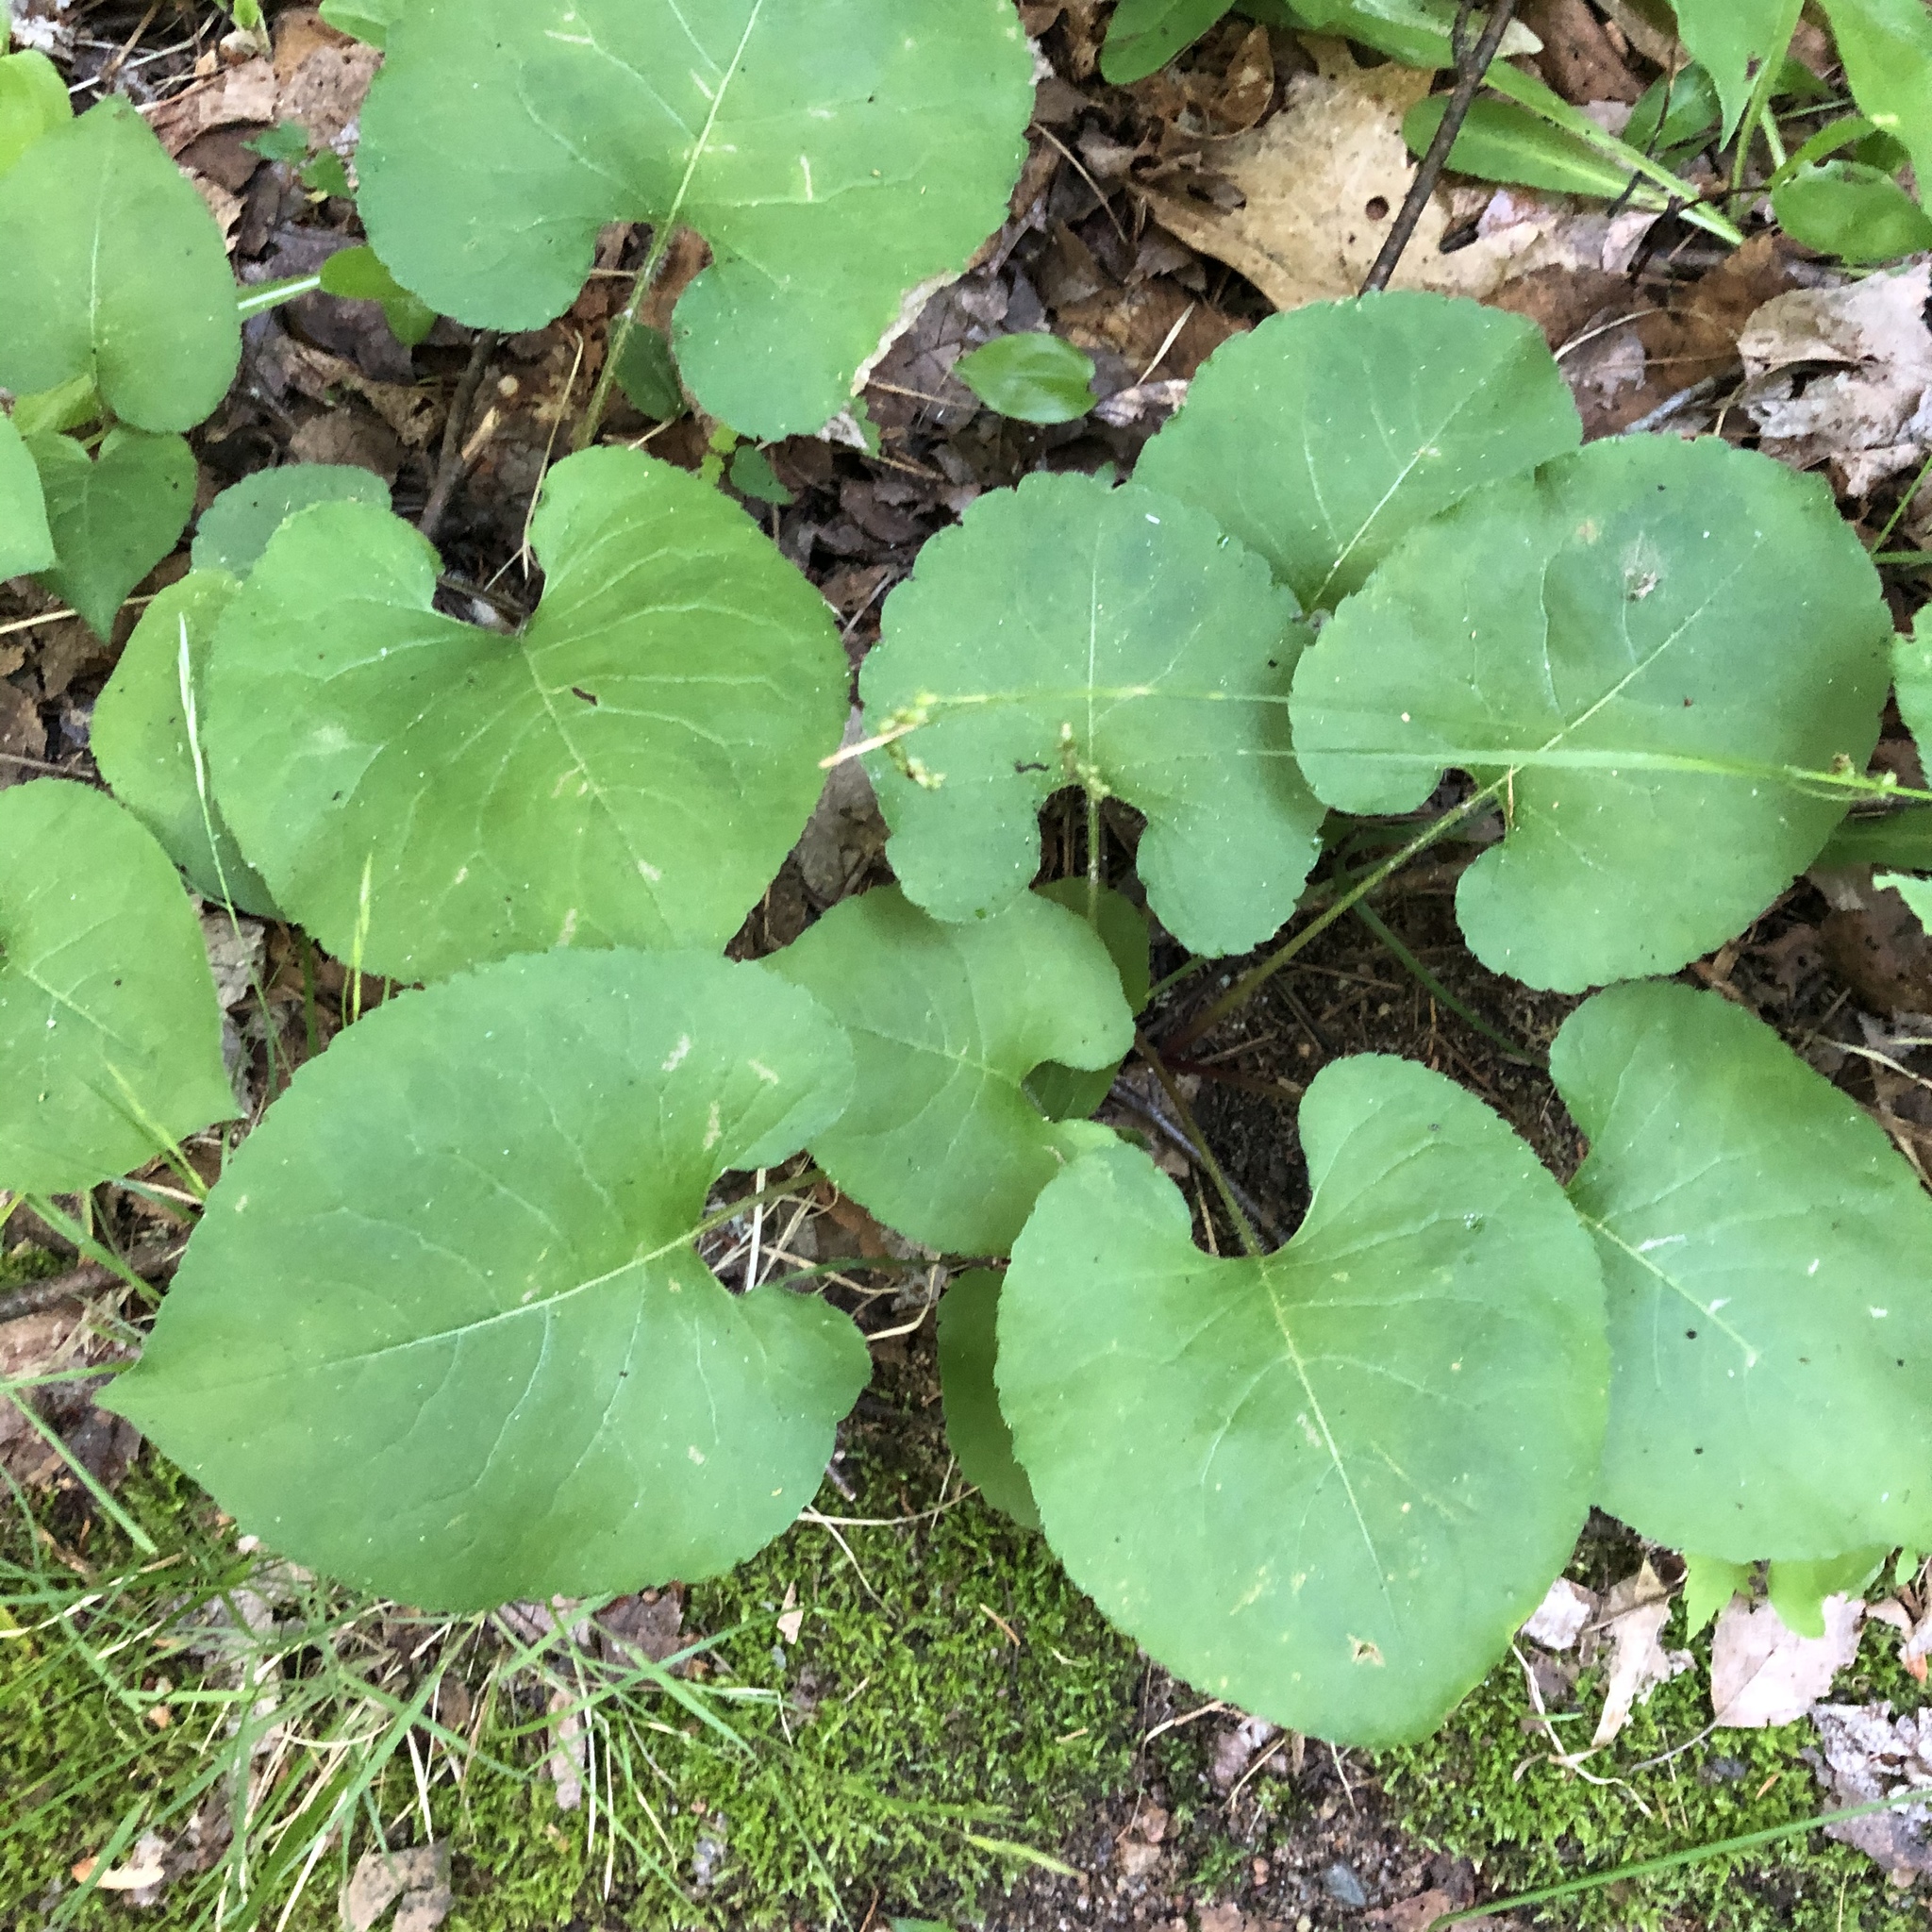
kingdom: Plantae
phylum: Tracheophyta
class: Magnoliopsida
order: Asterales
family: Asteraceae
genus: Eurybia
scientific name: Eurybia macrophylla
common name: Big-leaved aster
